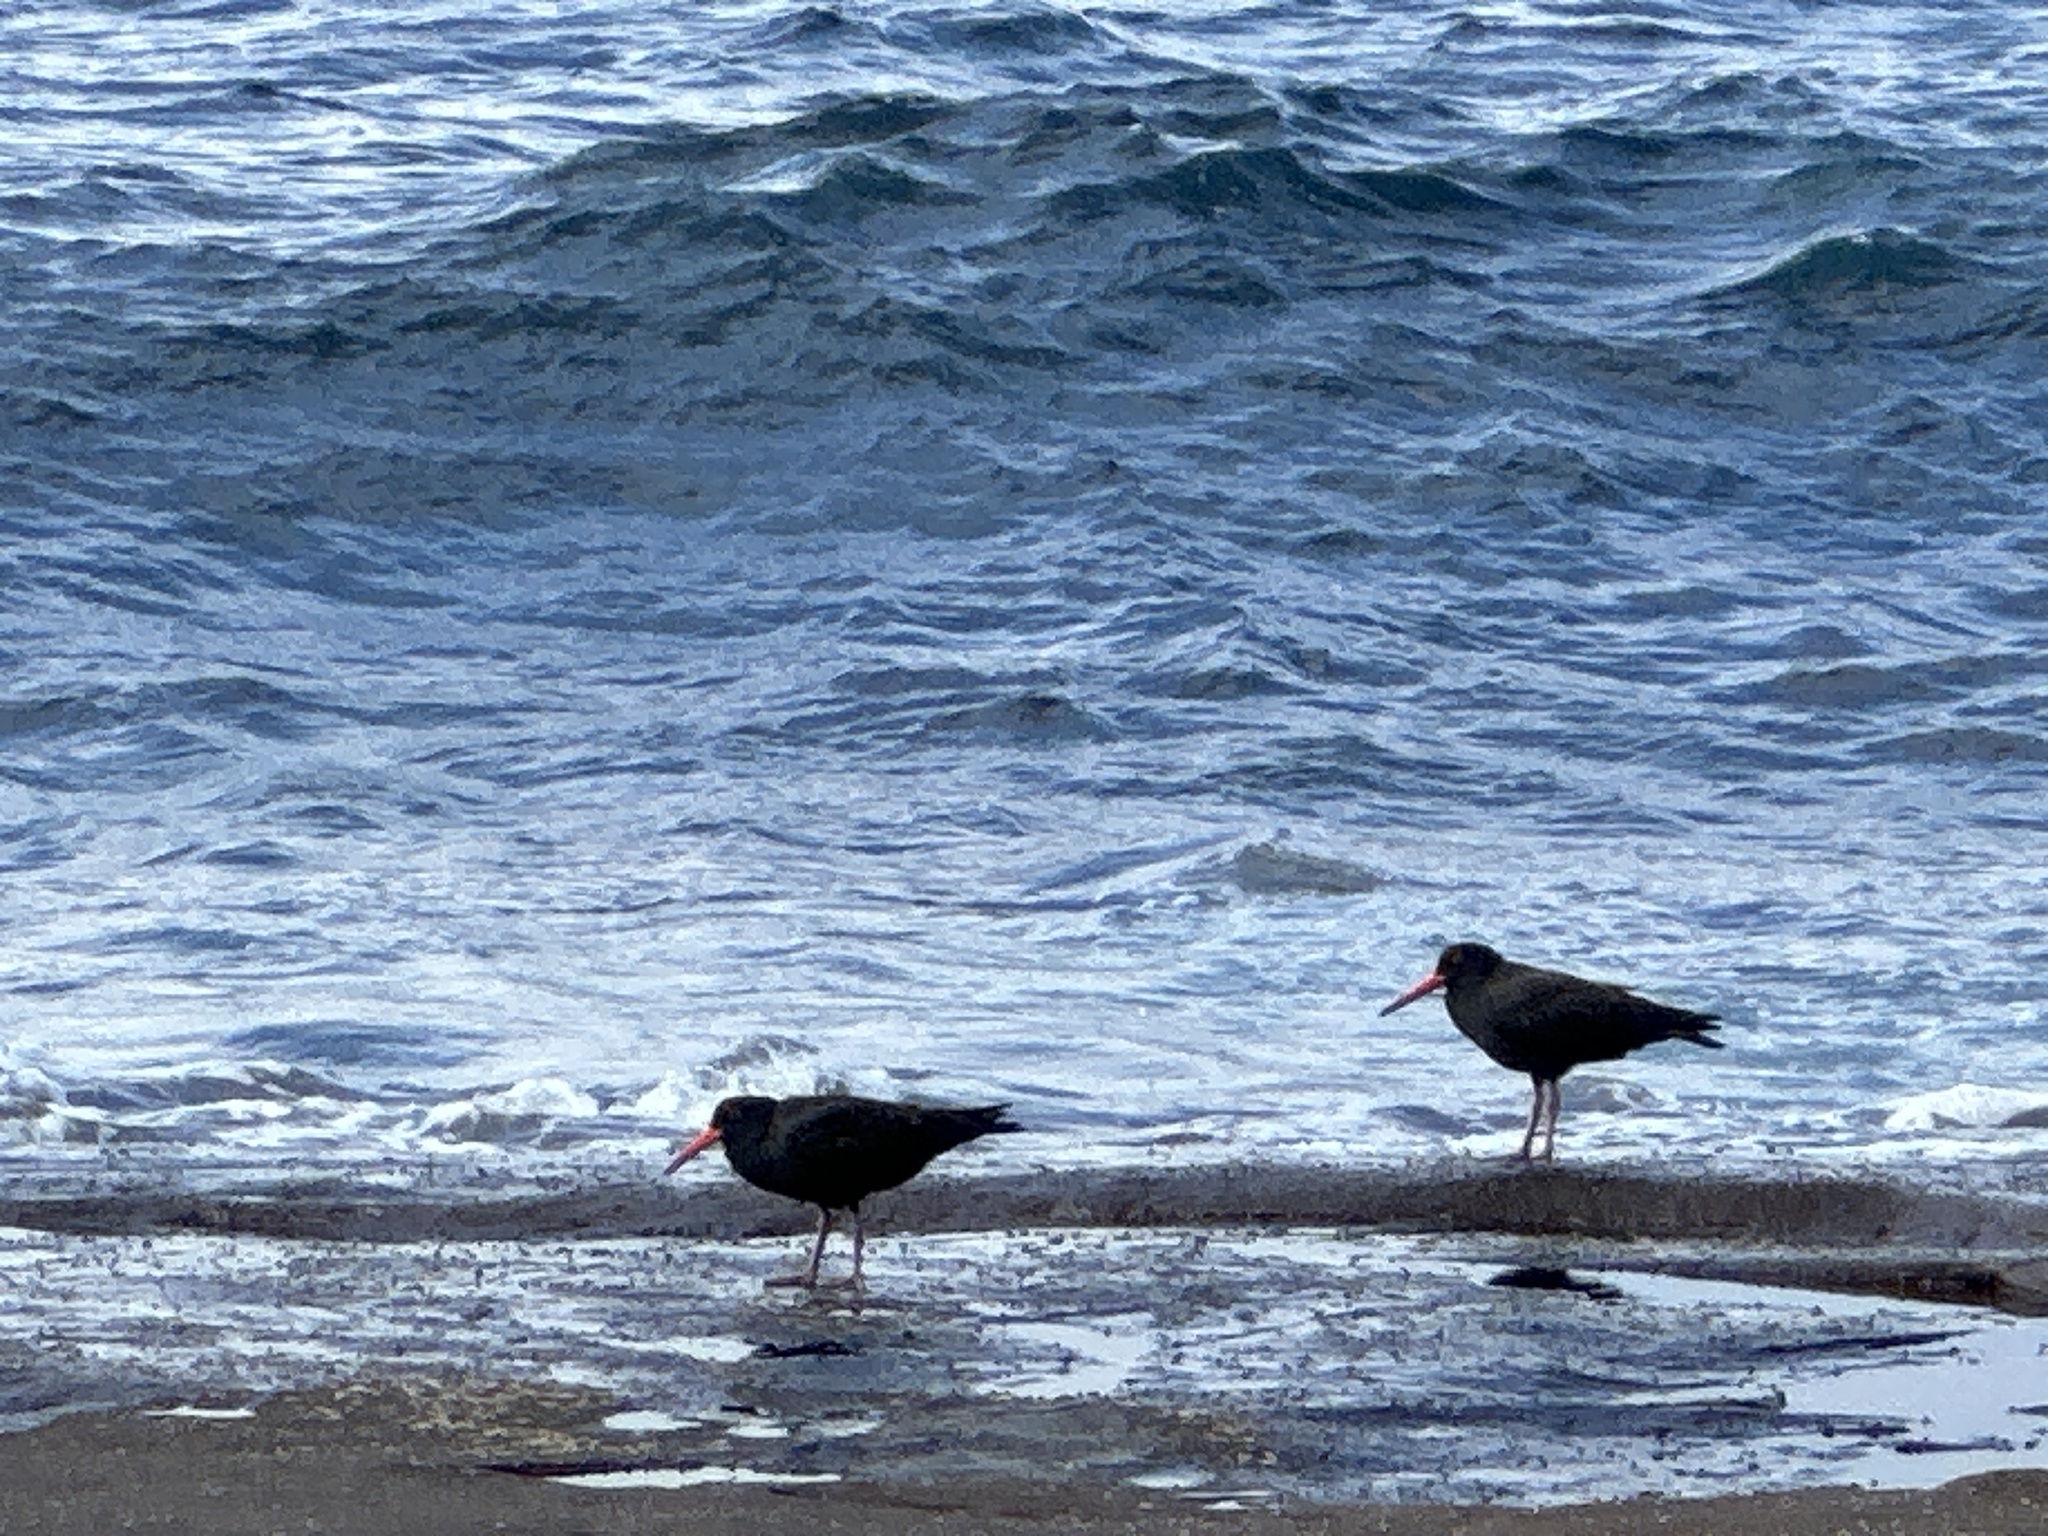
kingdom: Animalia
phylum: Chordata
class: Aves
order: Charadriiformes
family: Haematopodidae
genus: Haematopus
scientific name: Haematopus fuliginosus
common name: Sooty oystercatcher
